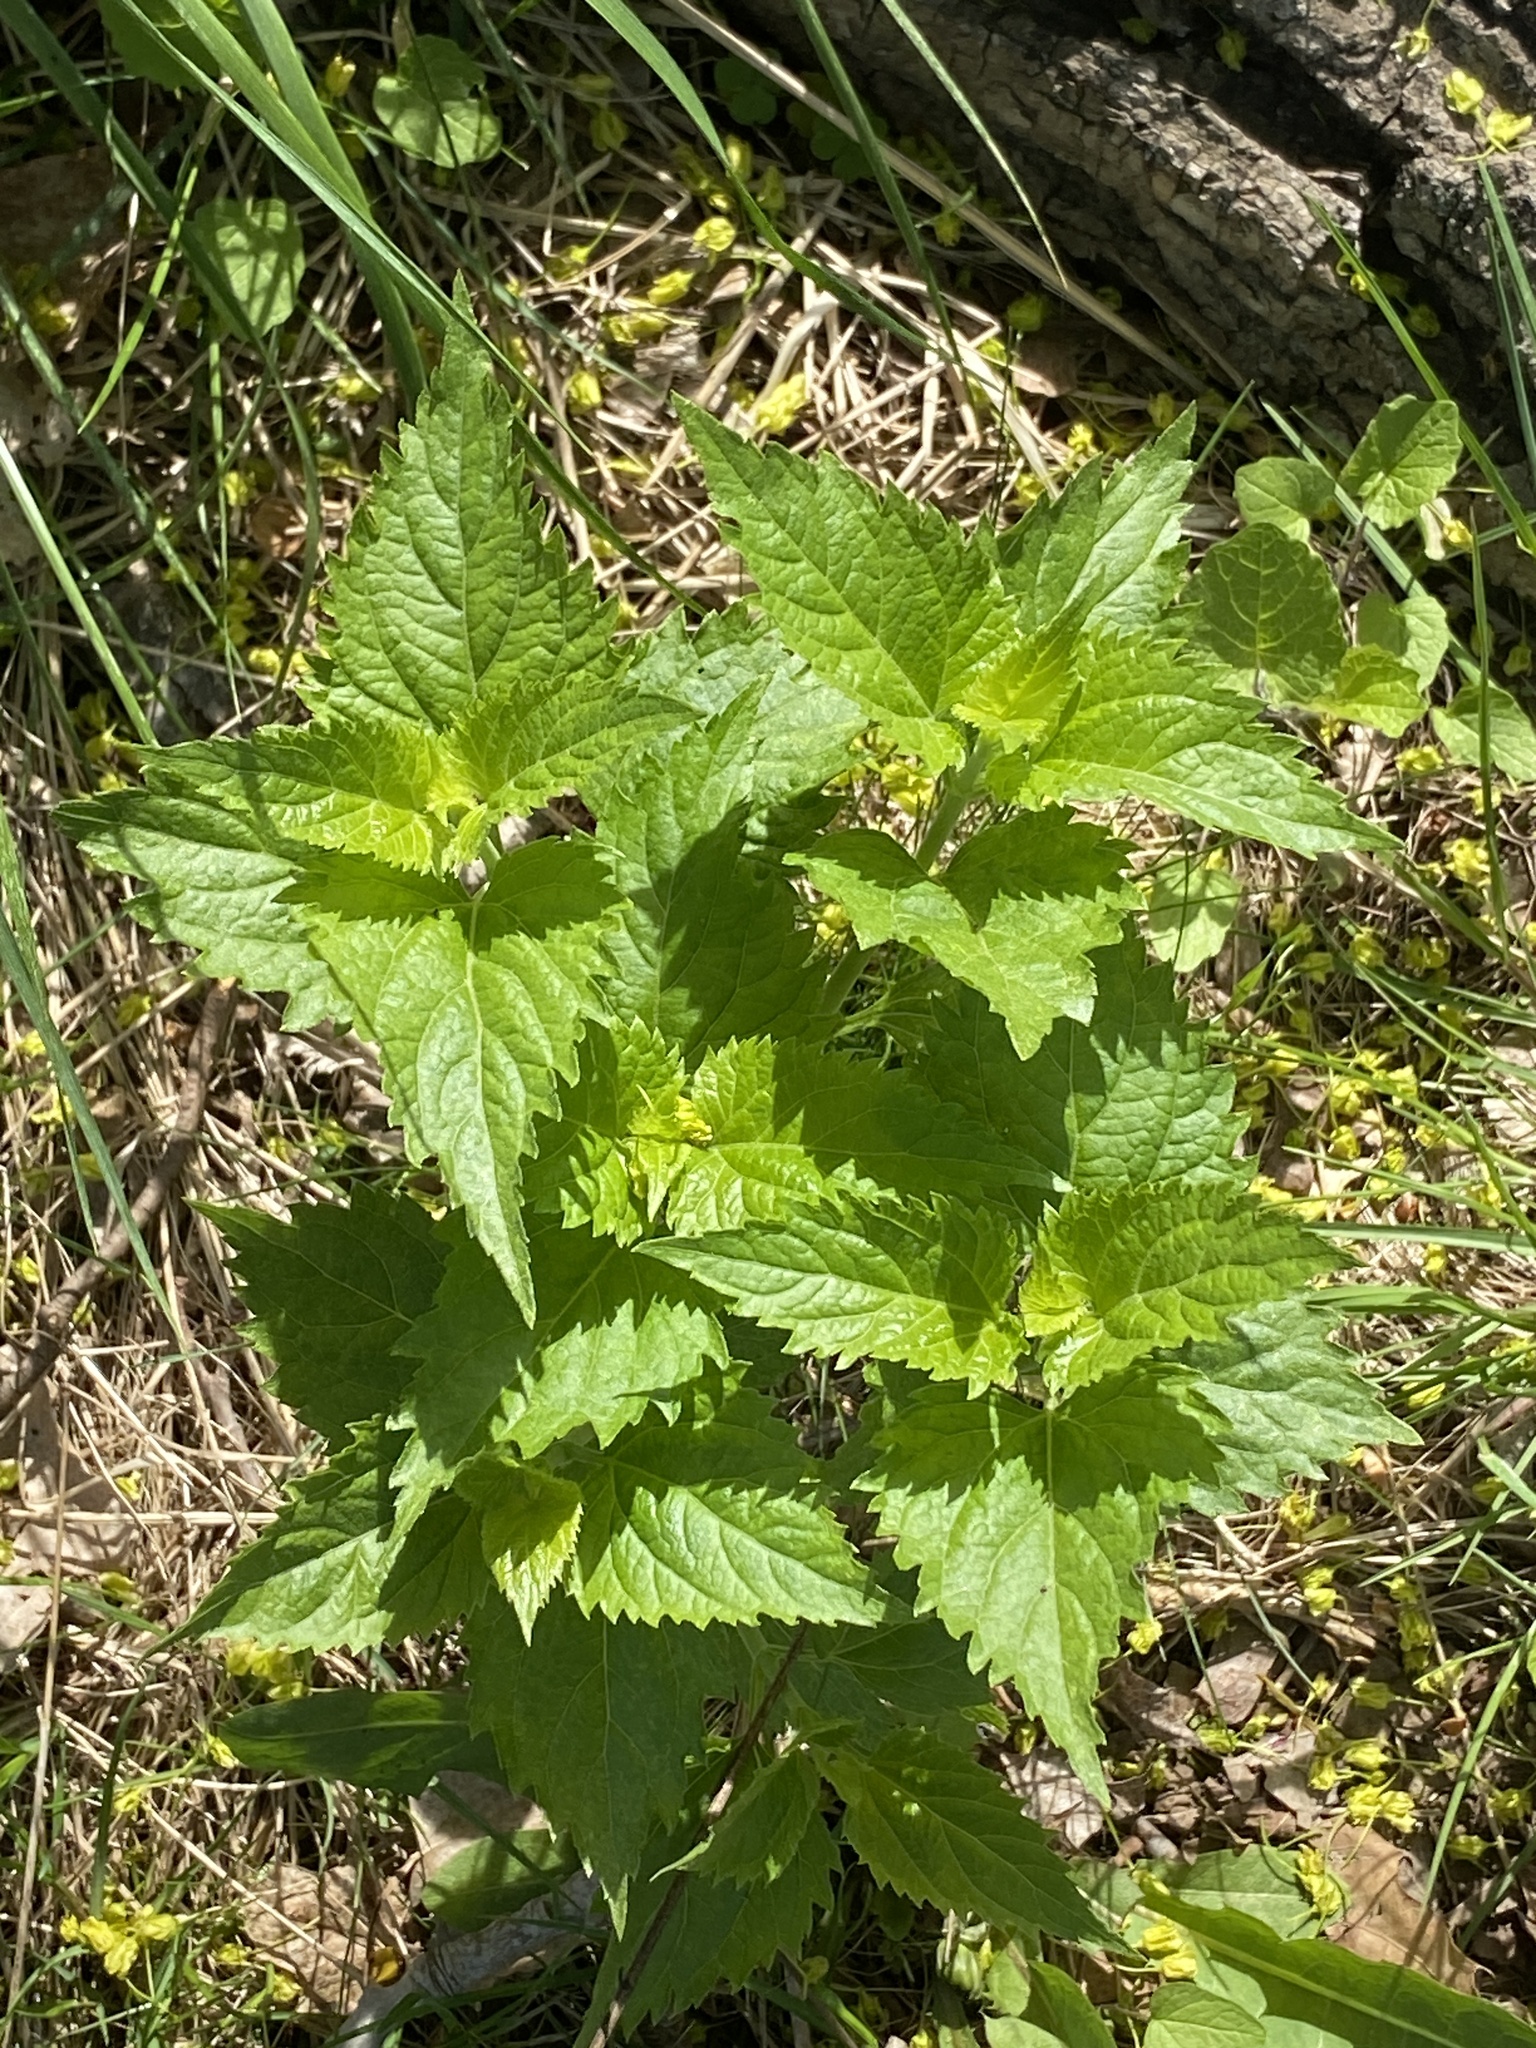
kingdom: Plantae
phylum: Tracheophyta
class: Magnoliopsida
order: Asterales
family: Asteraceae
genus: Ageratina
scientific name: Ageratina altissima
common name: White snakeroot
